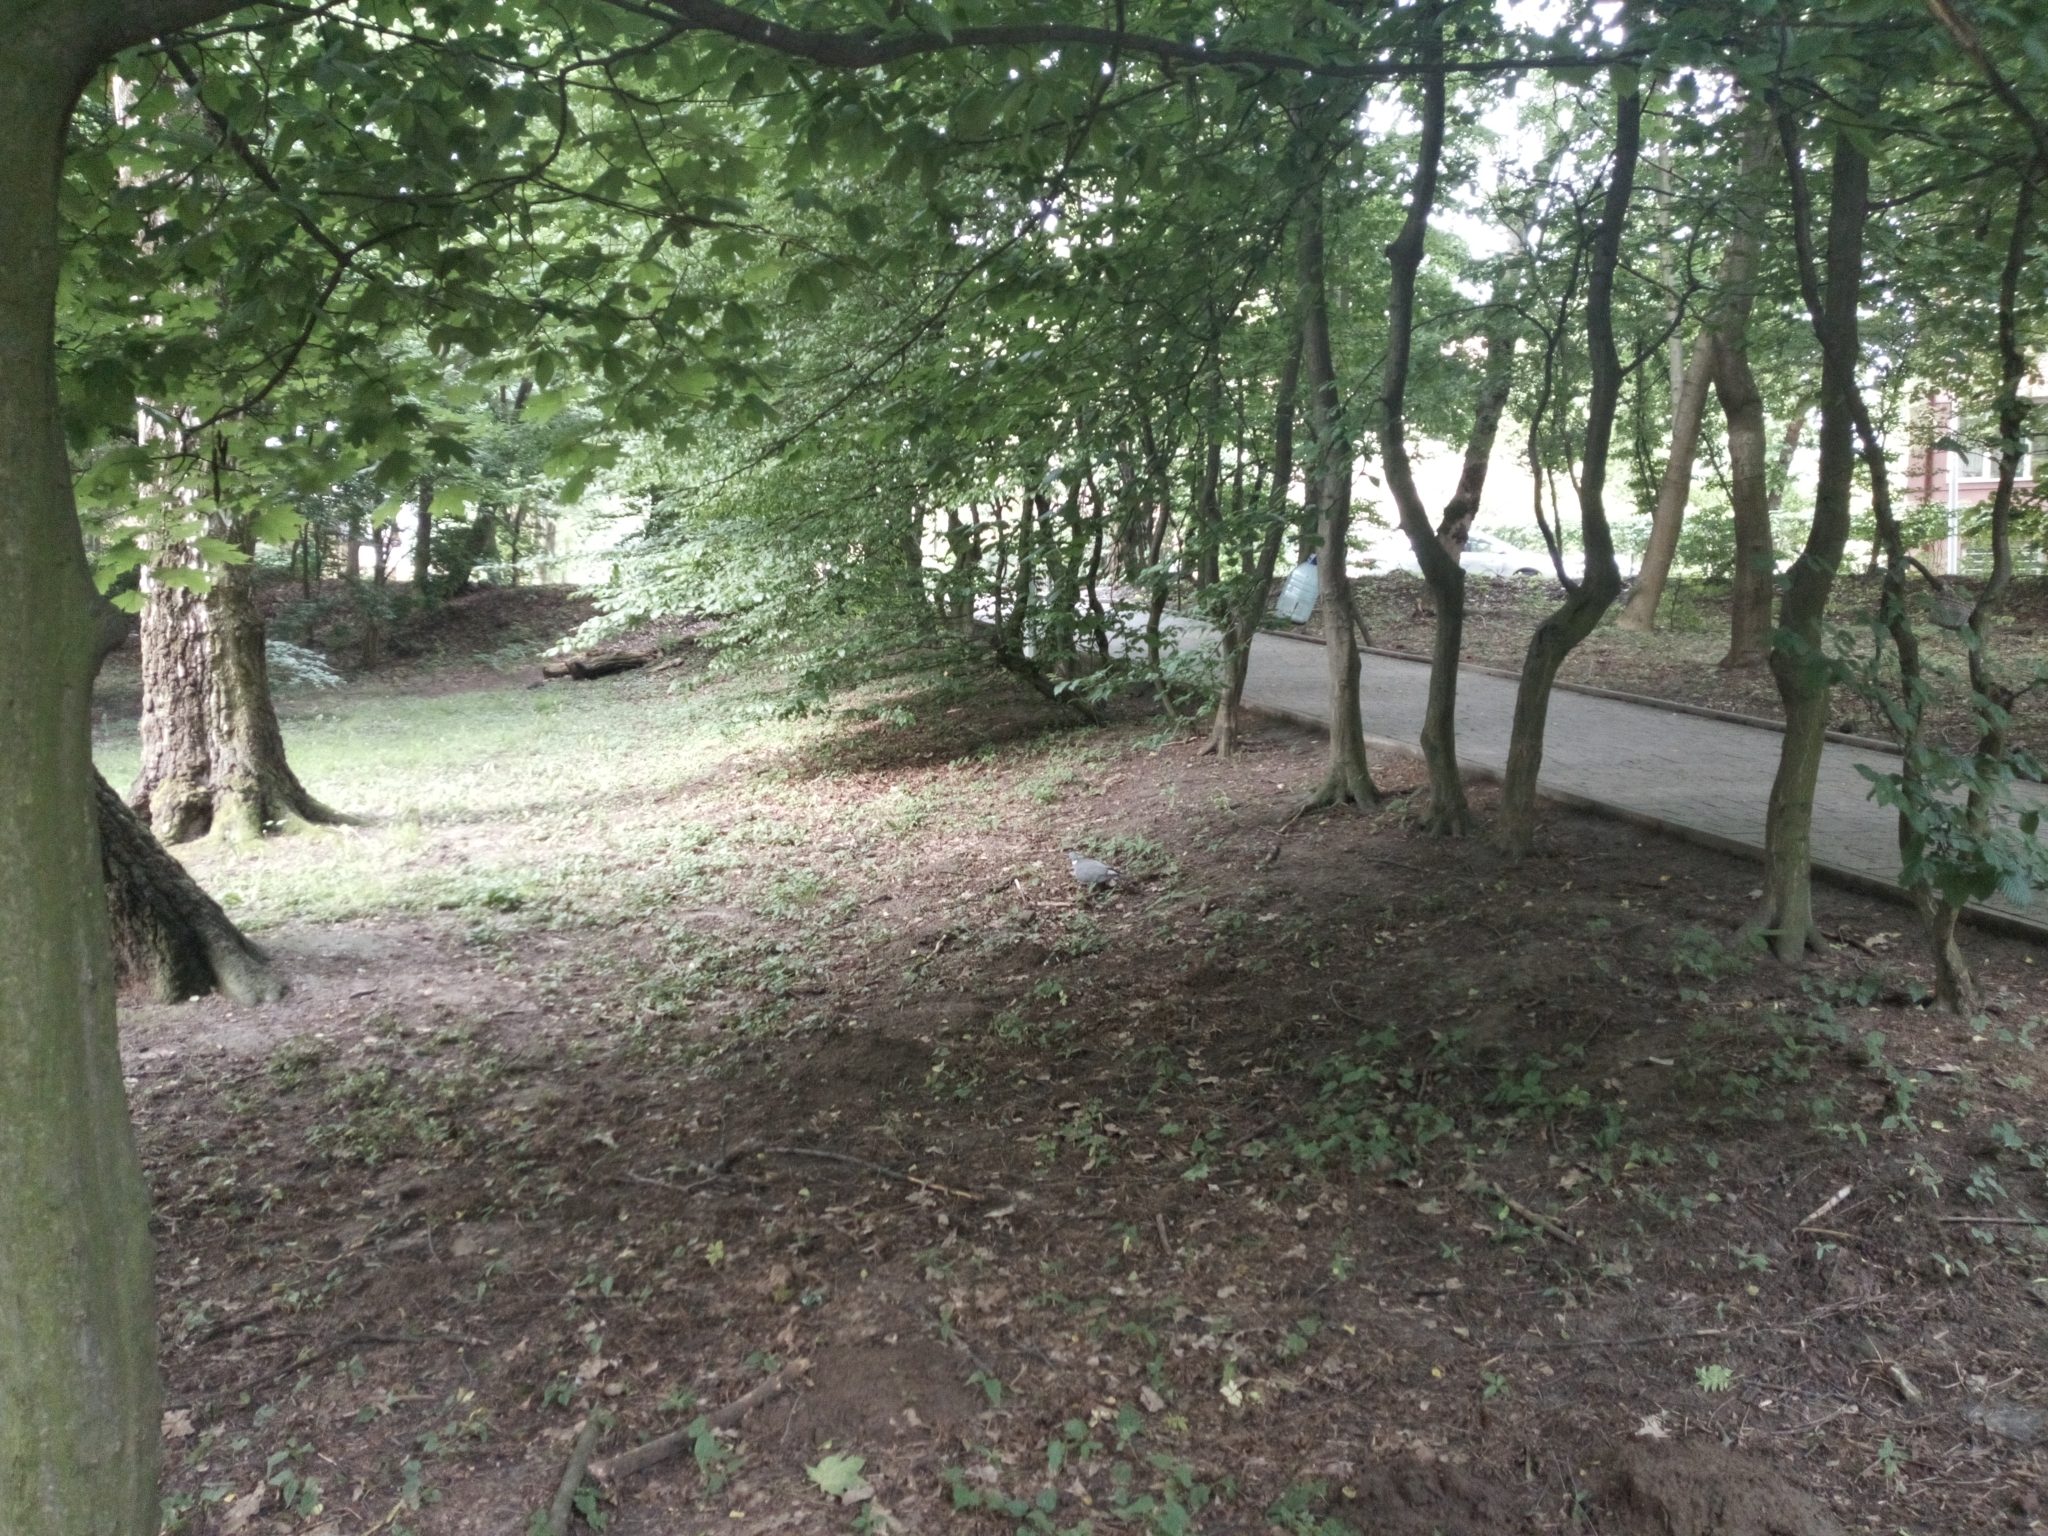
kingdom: Animalia
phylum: Chordata
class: Aves
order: Columbiformes
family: Columbidae
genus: Columba
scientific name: Columba palumbus
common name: Common wood pigeon
